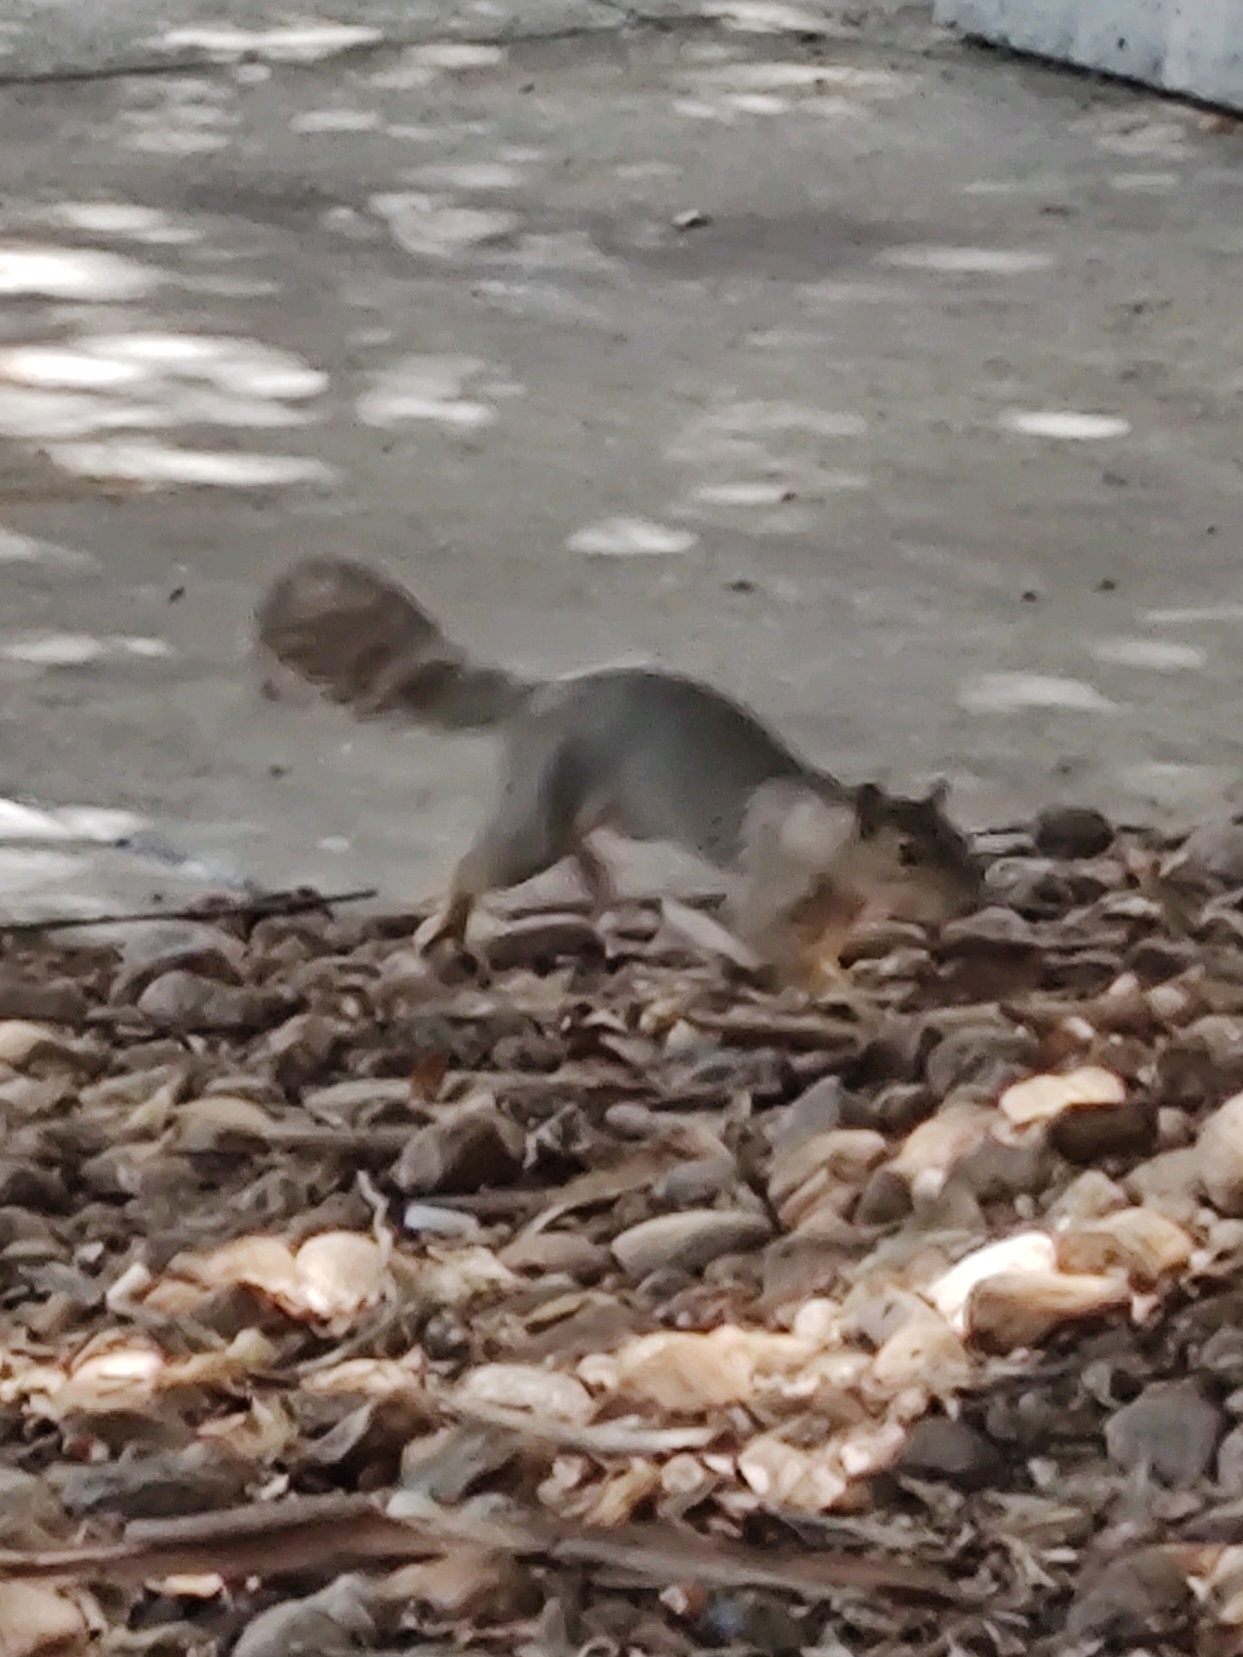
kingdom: Animalia
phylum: Chordata
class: Mammalia
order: Rodentia
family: Sciuridae
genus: Sciurus
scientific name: Sciurus niger
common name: Fox squirrel
